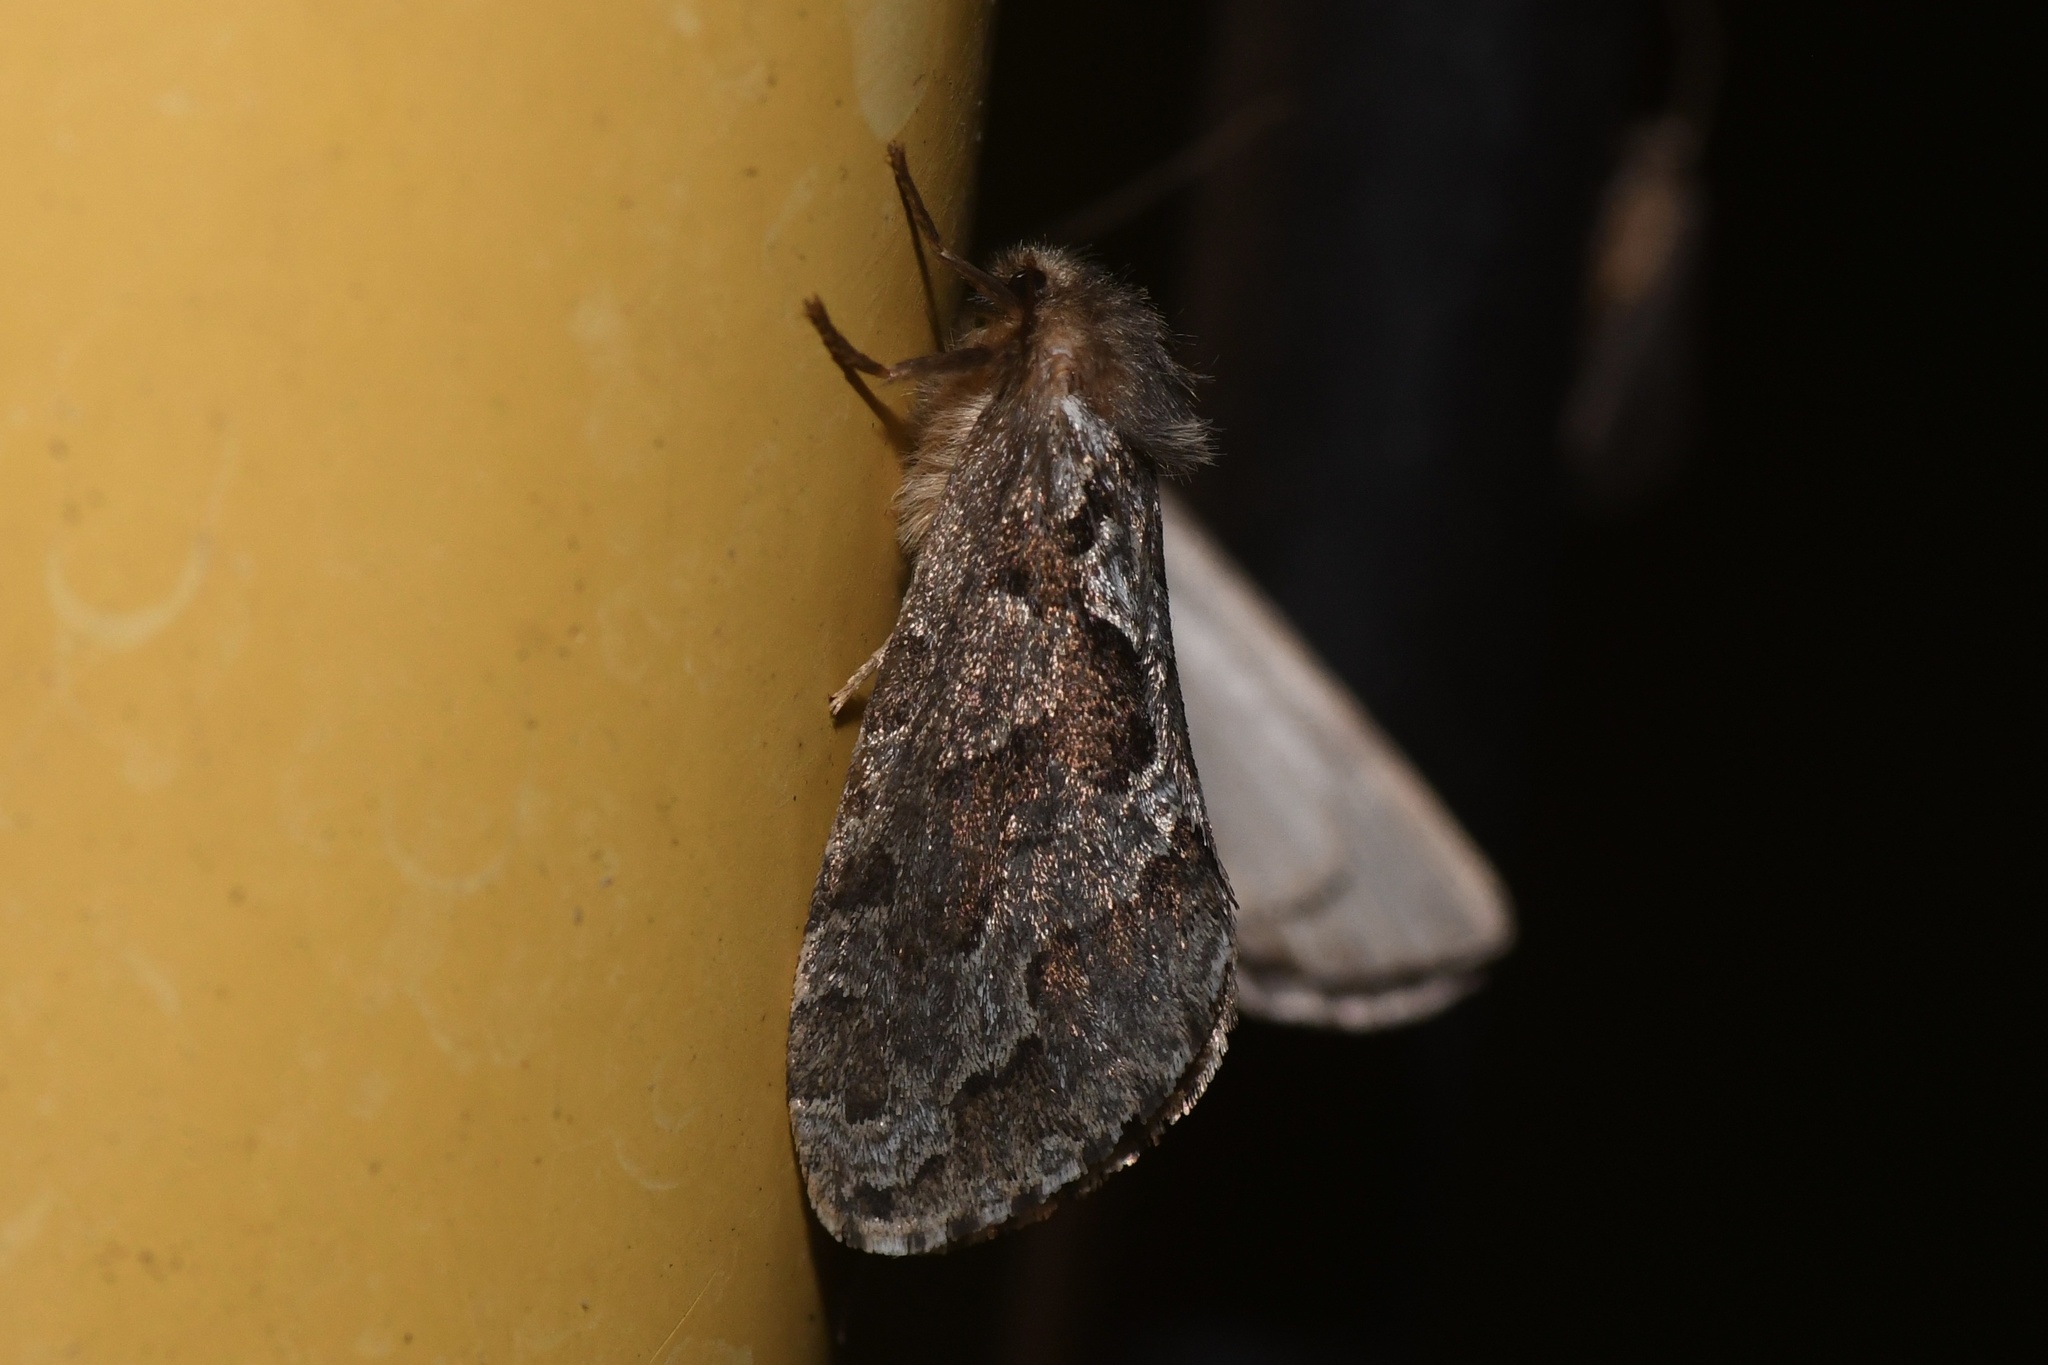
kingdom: Animalia
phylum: Arthropoda
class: Insecta
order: Lepidoptera
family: Hepialidae
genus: Korscheltellus
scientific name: Korscheltellus gracilis
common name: Conifer swift moth
